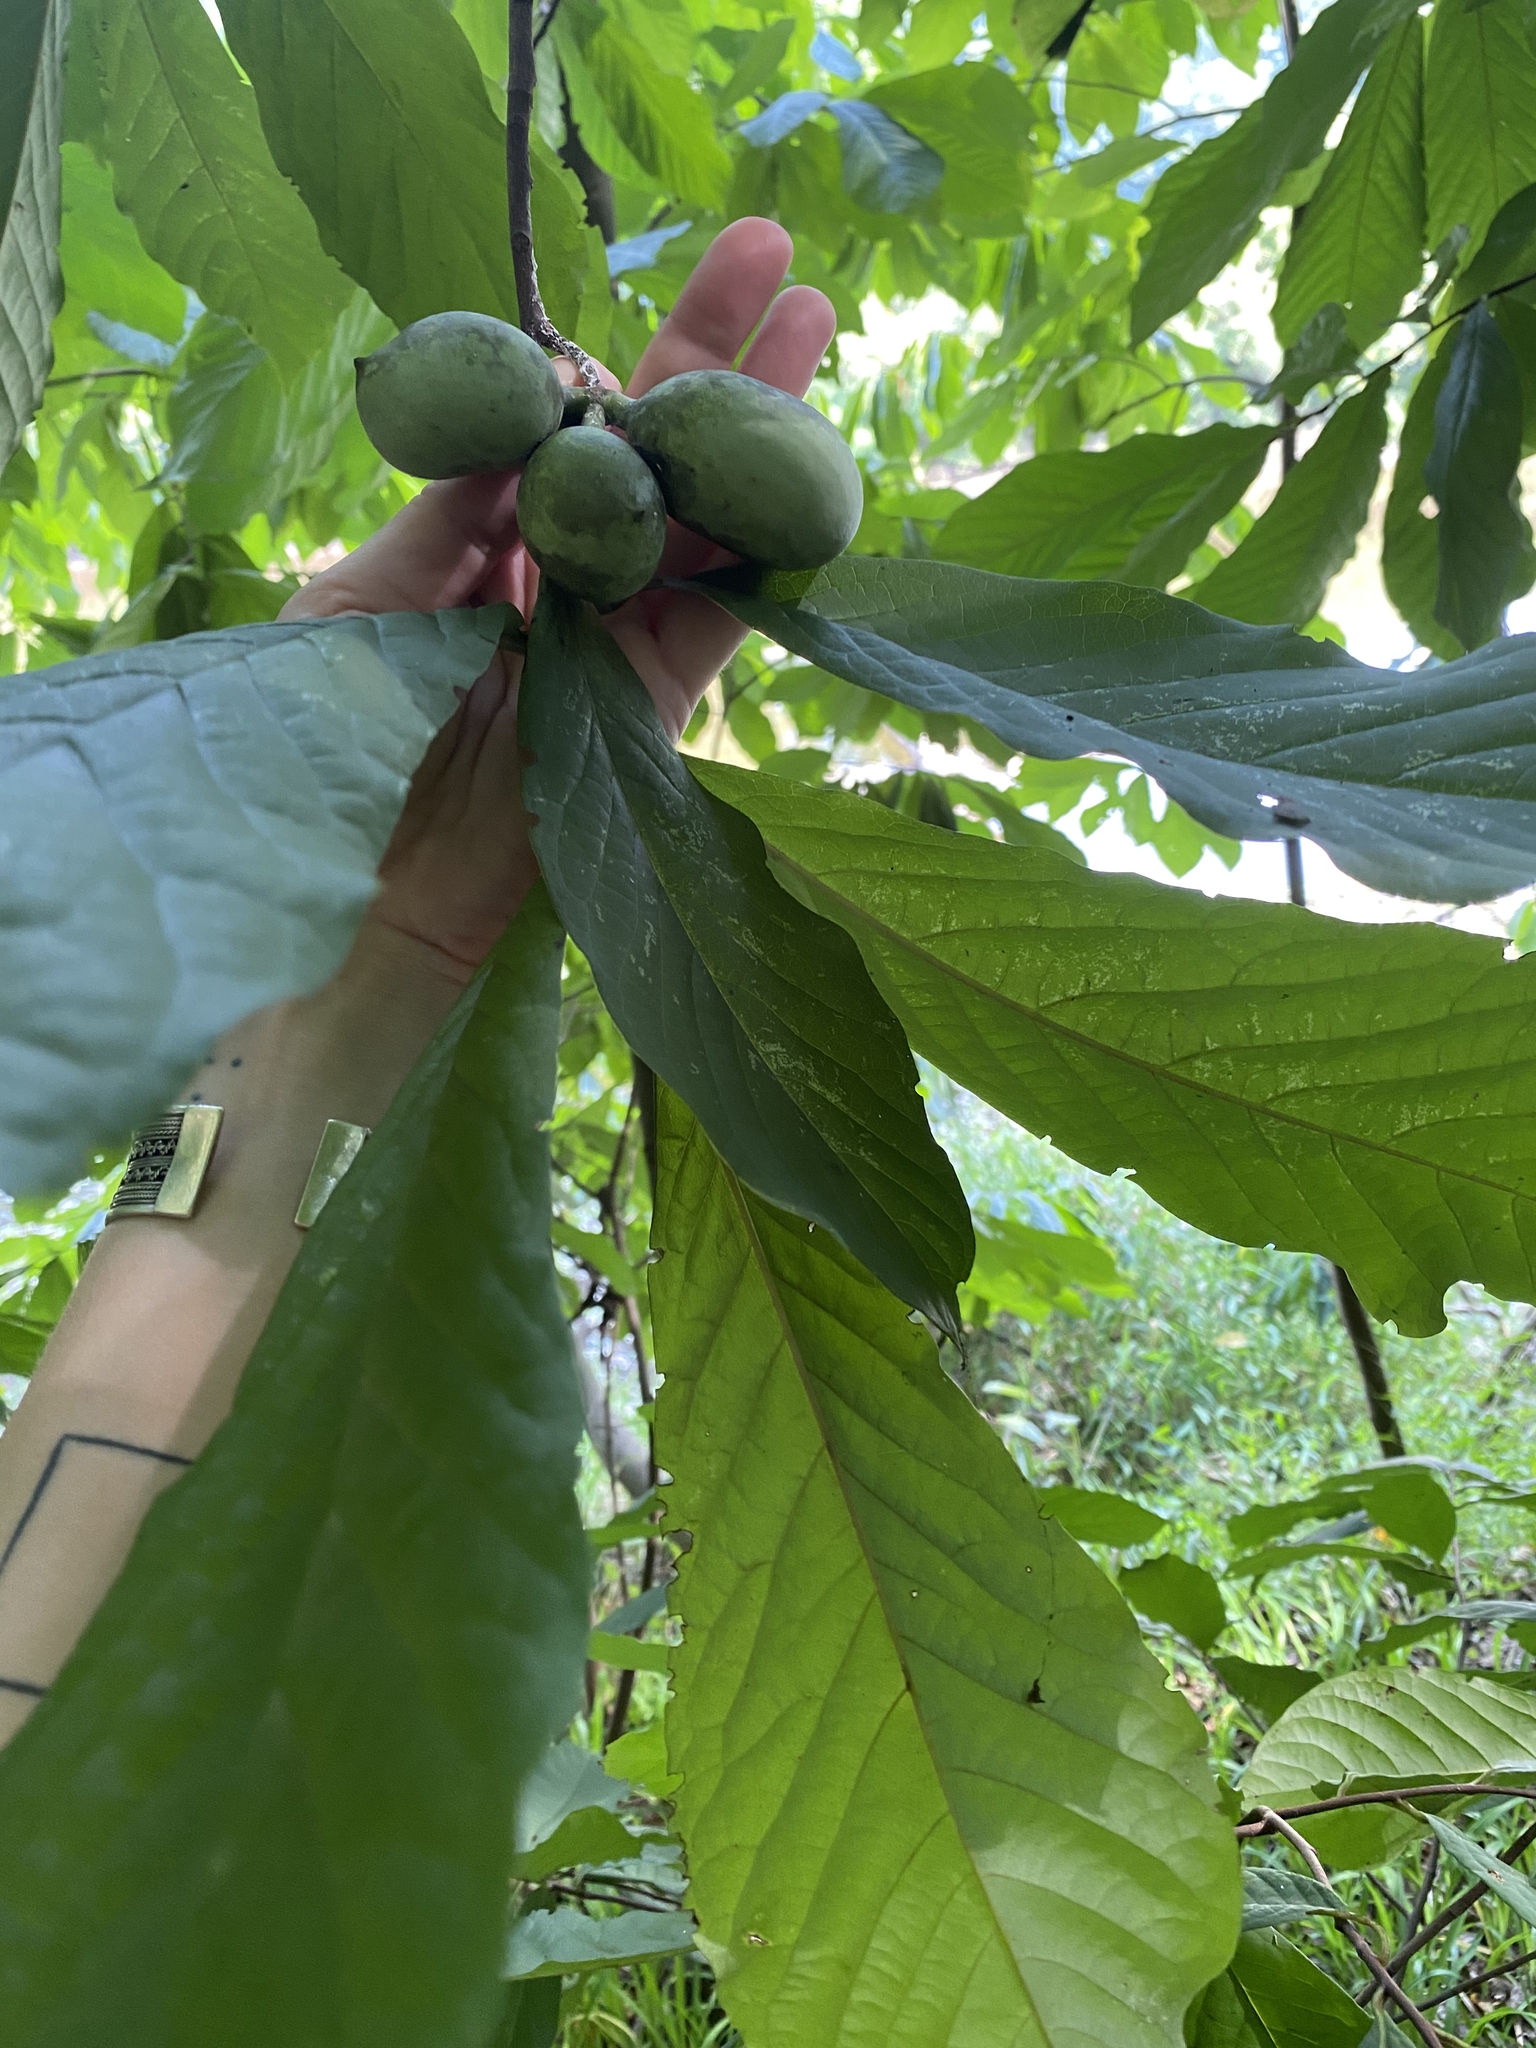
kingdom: Plantae
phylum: Tracheophyta
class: Magnoliopsida
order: Magnoliales
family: Annonaceae
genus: Asimina
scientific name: Asimina triloba
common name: Dog-banana
